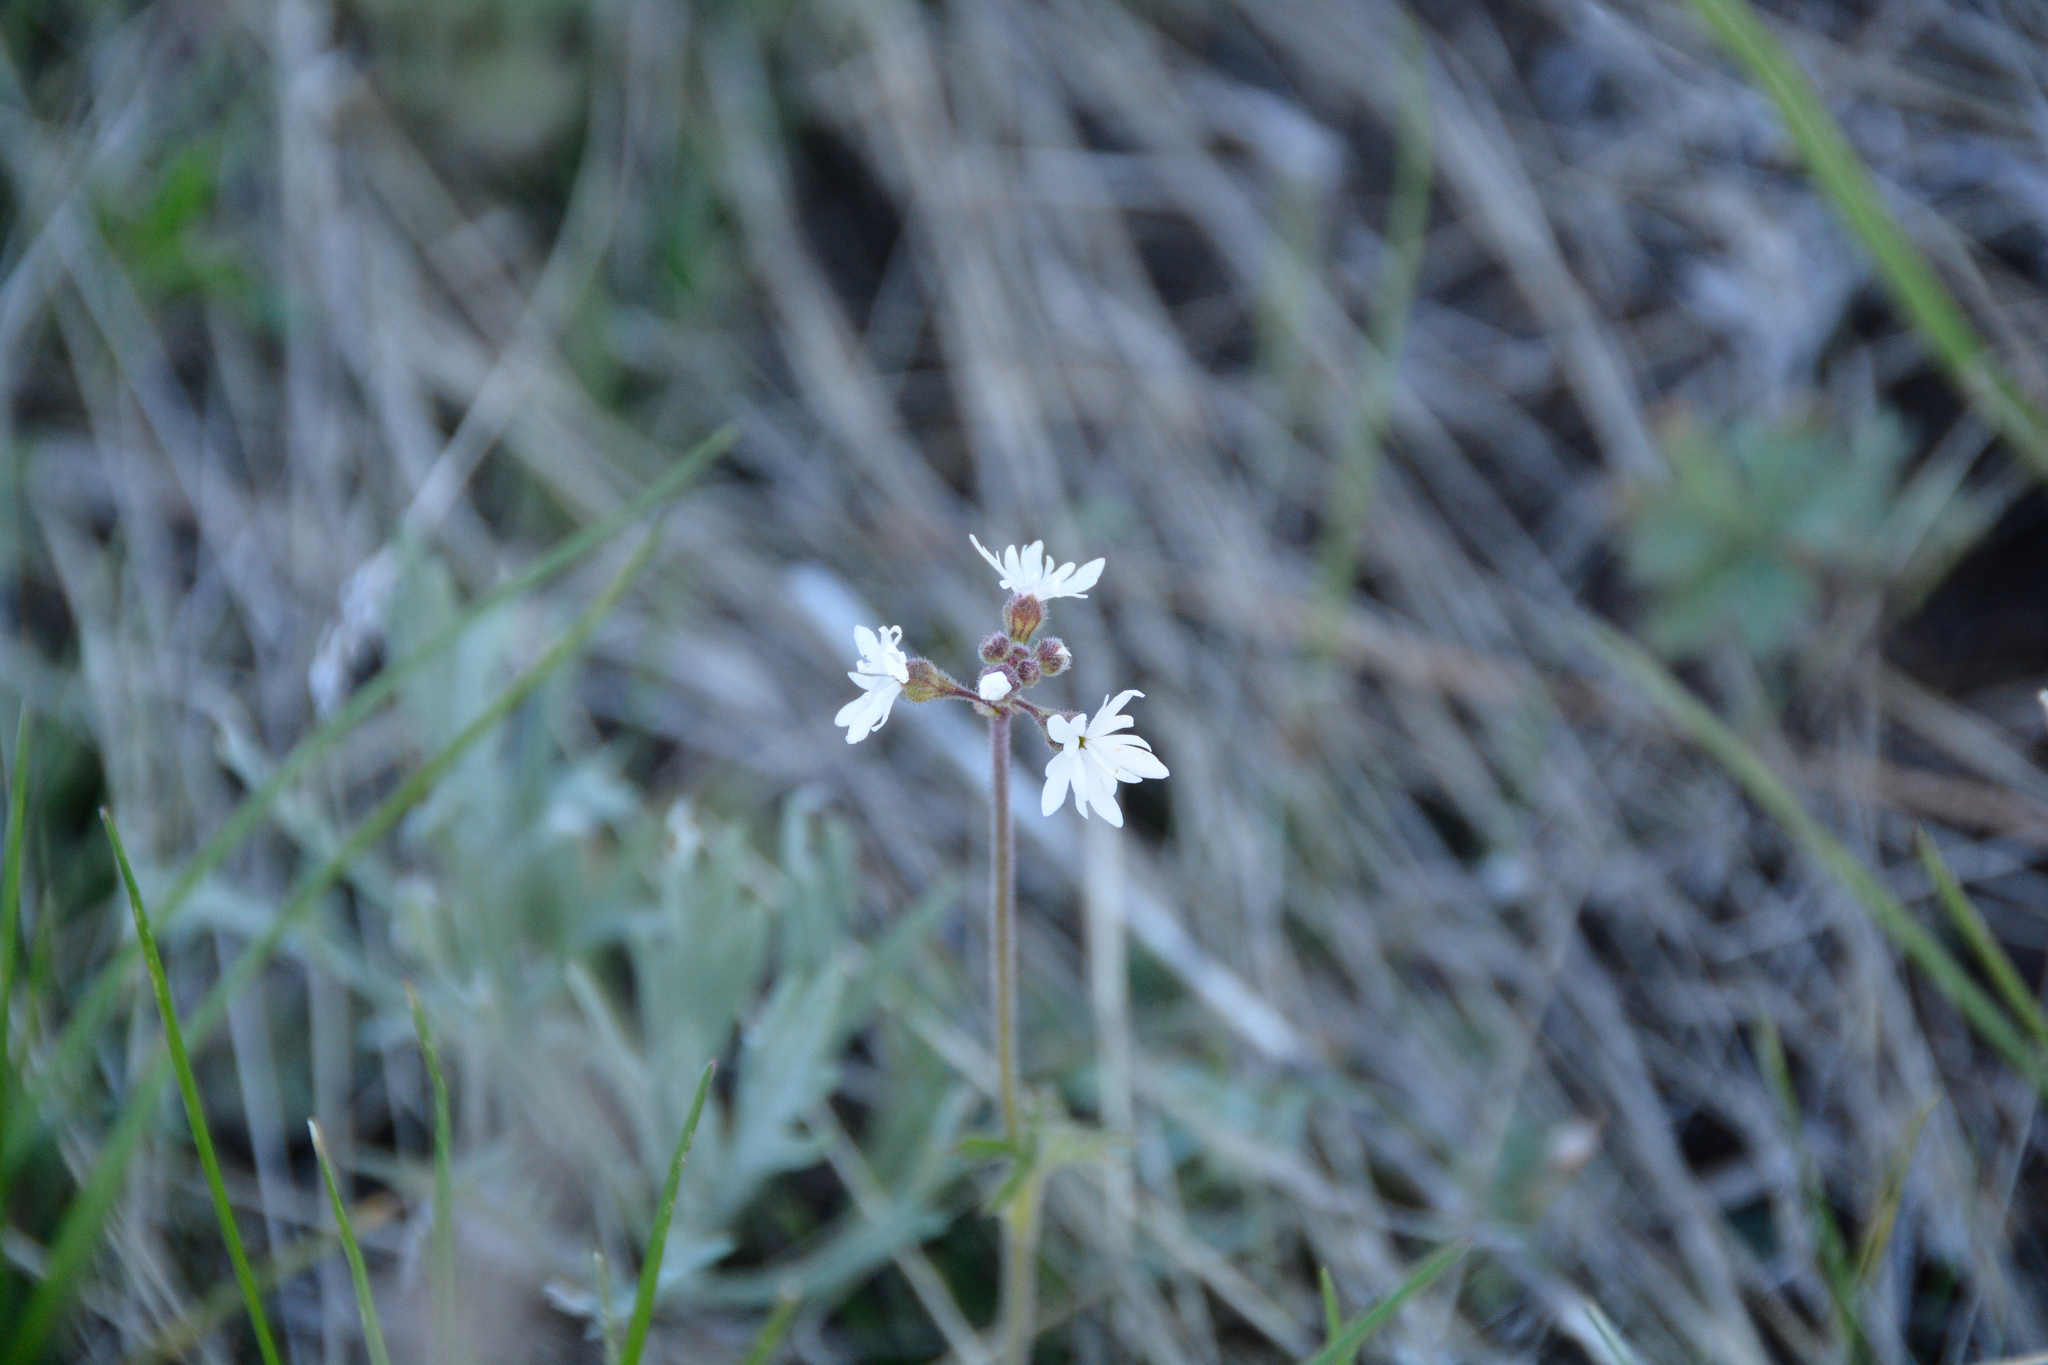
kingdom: Plantae
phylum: Tracheophyta
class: Magnoliopsida
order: Saxifragales
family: Saxifragaceae
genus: Lithophragma
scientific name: Lithophragma parviflorum
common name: Small-flowered fringe-cup
